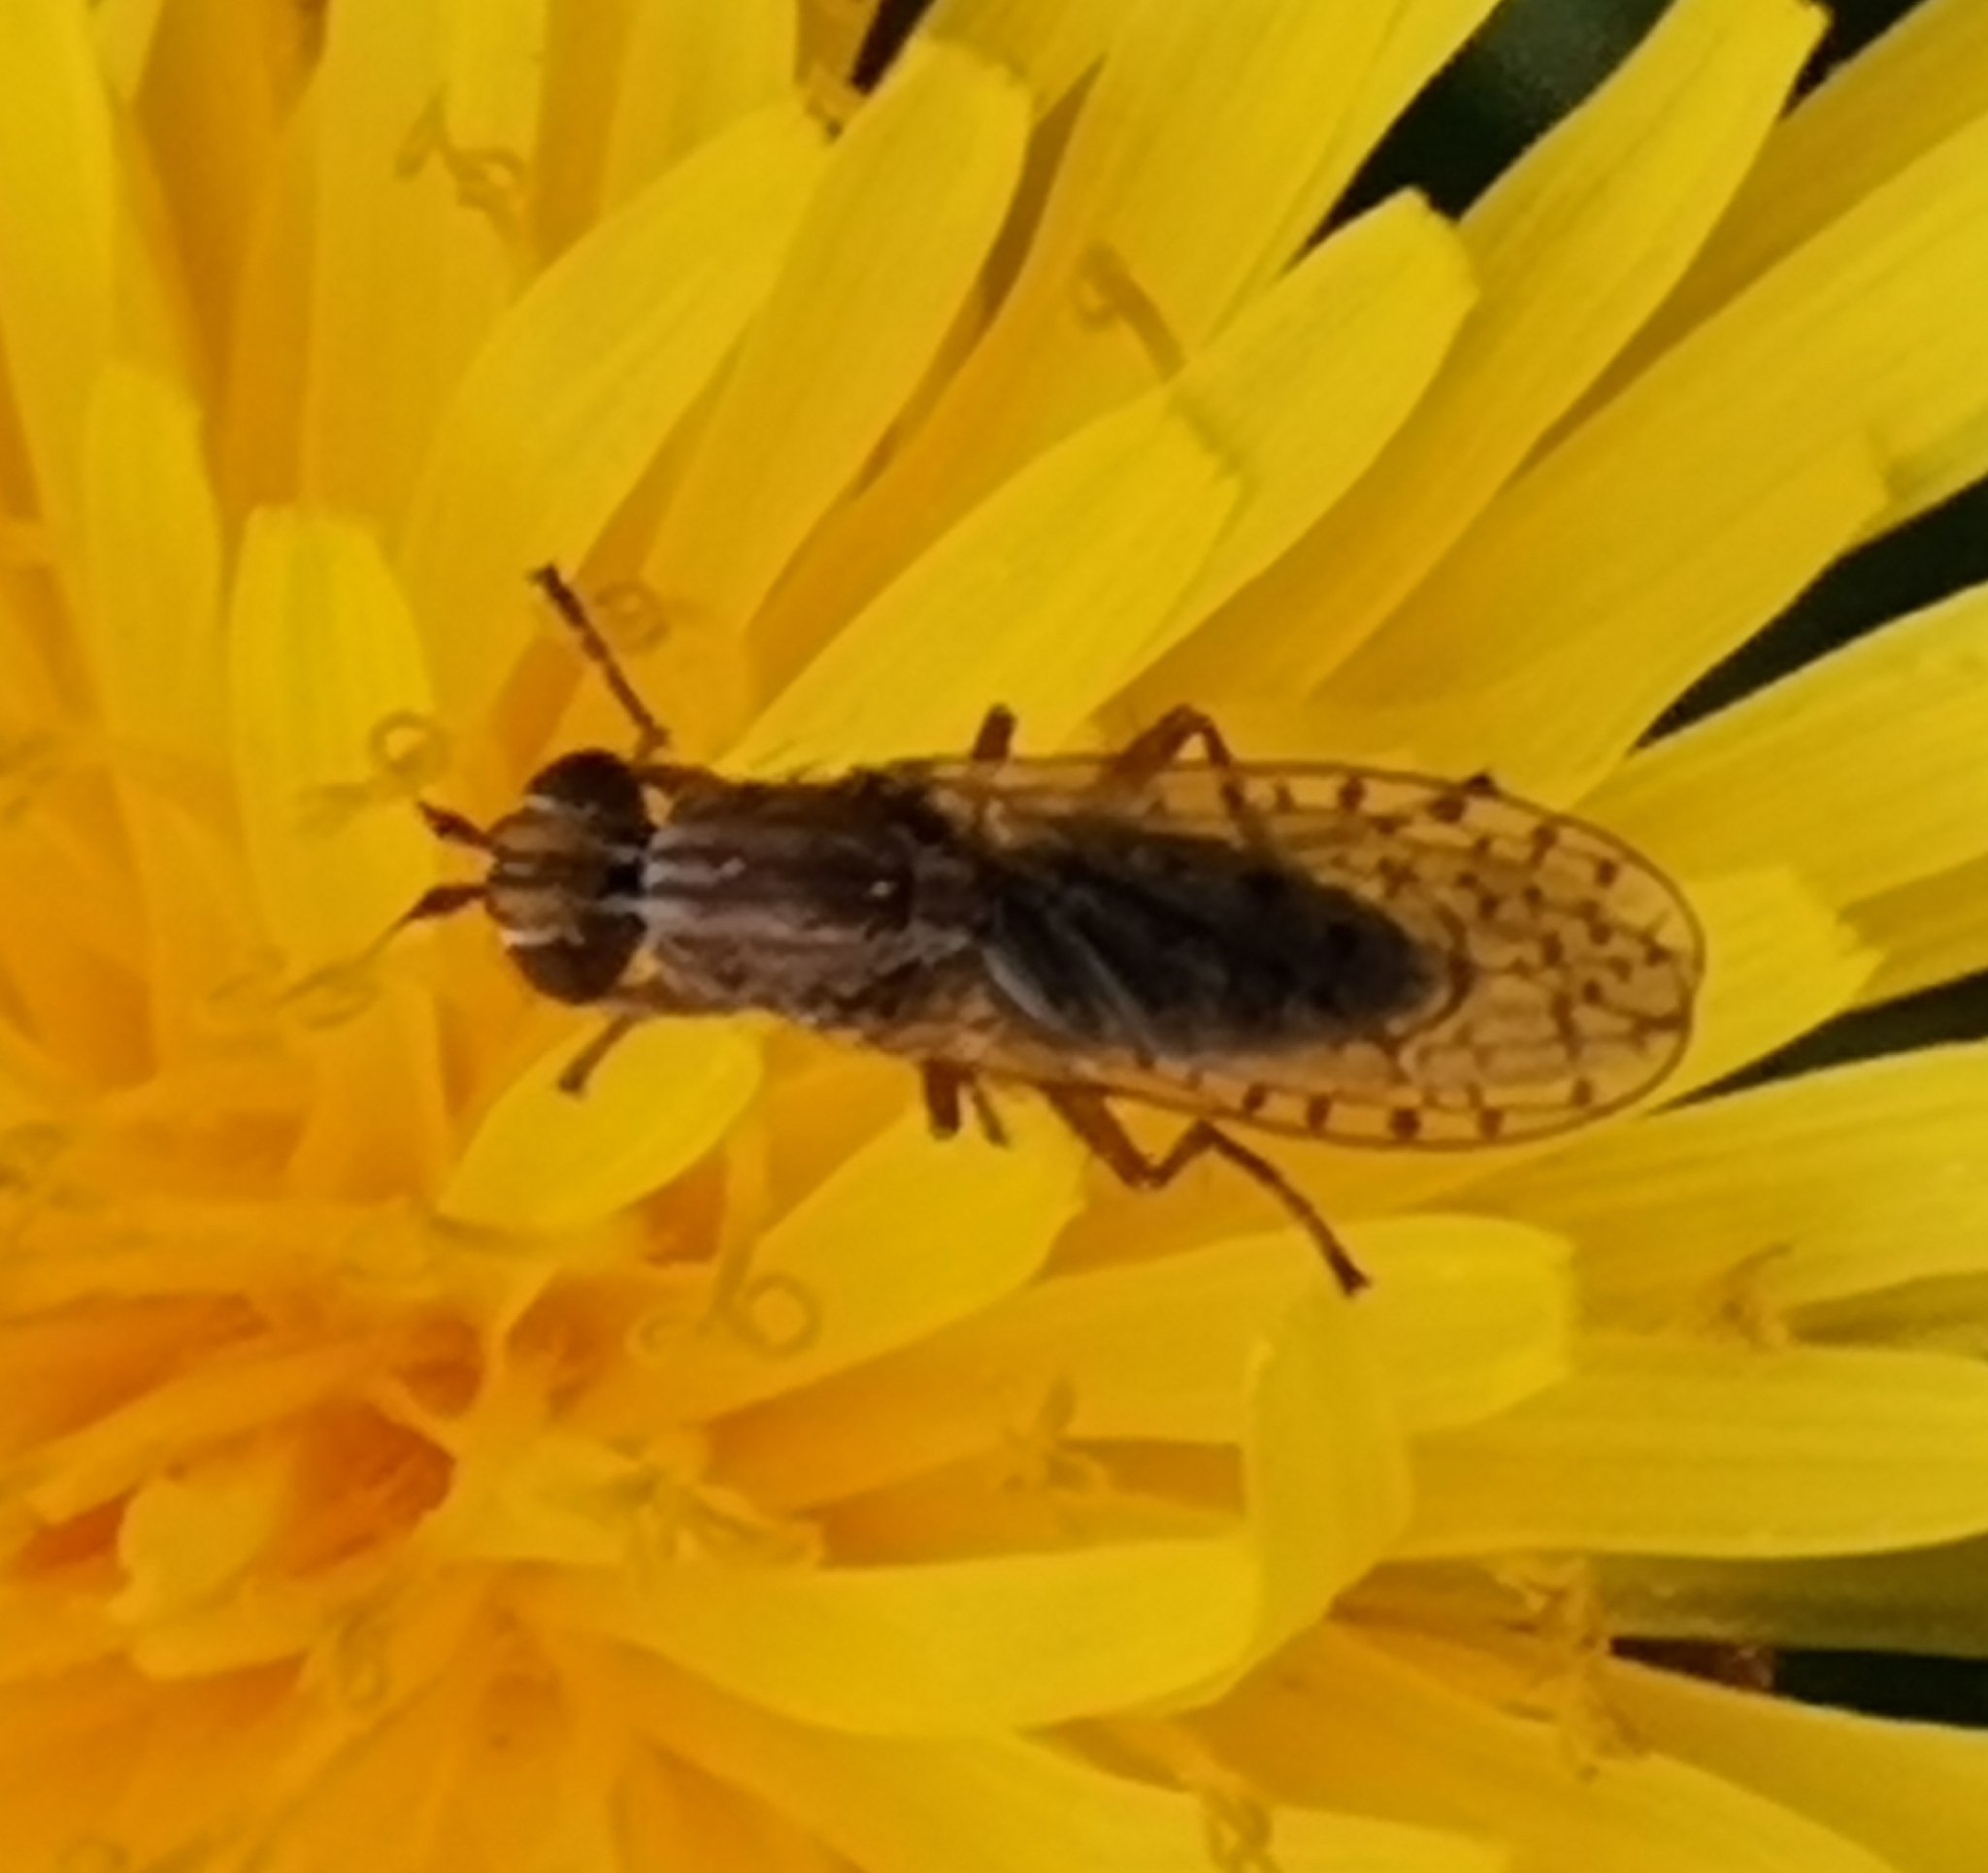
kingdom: Animalia
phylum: Arthropoda
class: Insecta
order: Diptera
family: Sciomyzidae
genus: Pherbellia
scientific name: Pherbellia schoenherri
